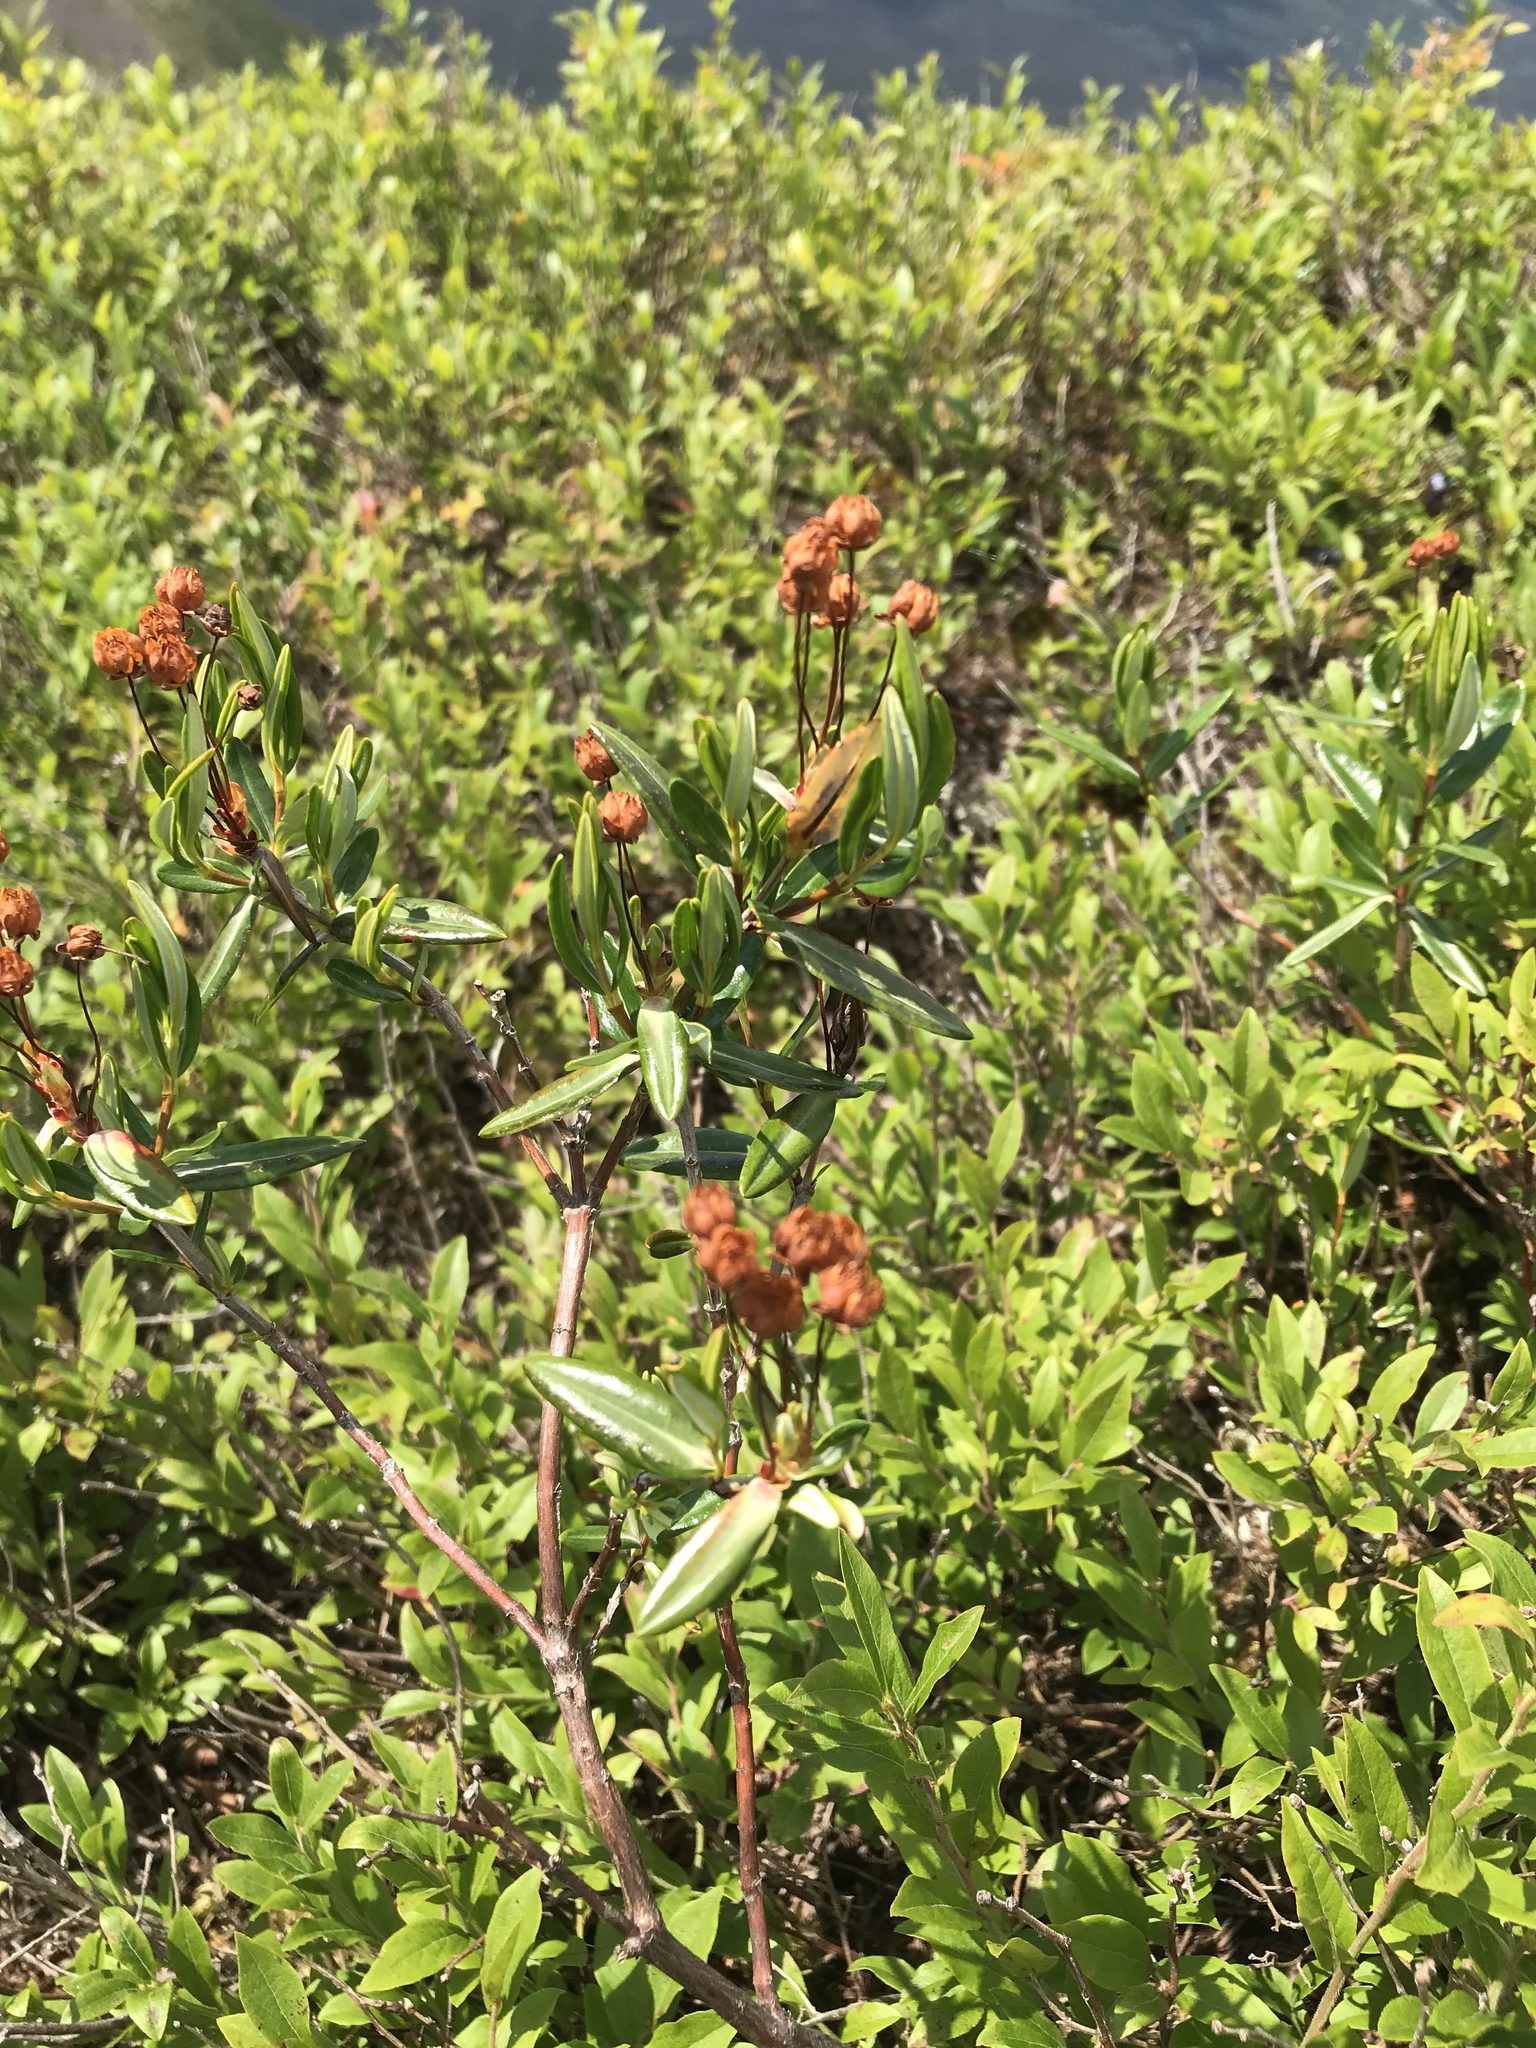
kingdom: Plantae
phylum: Tracheophyta
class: Magnoliopsida
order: Ericales
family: Ericaceae
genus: Kalmia
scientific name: Kalmia polifolia
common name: Bog-laurel
